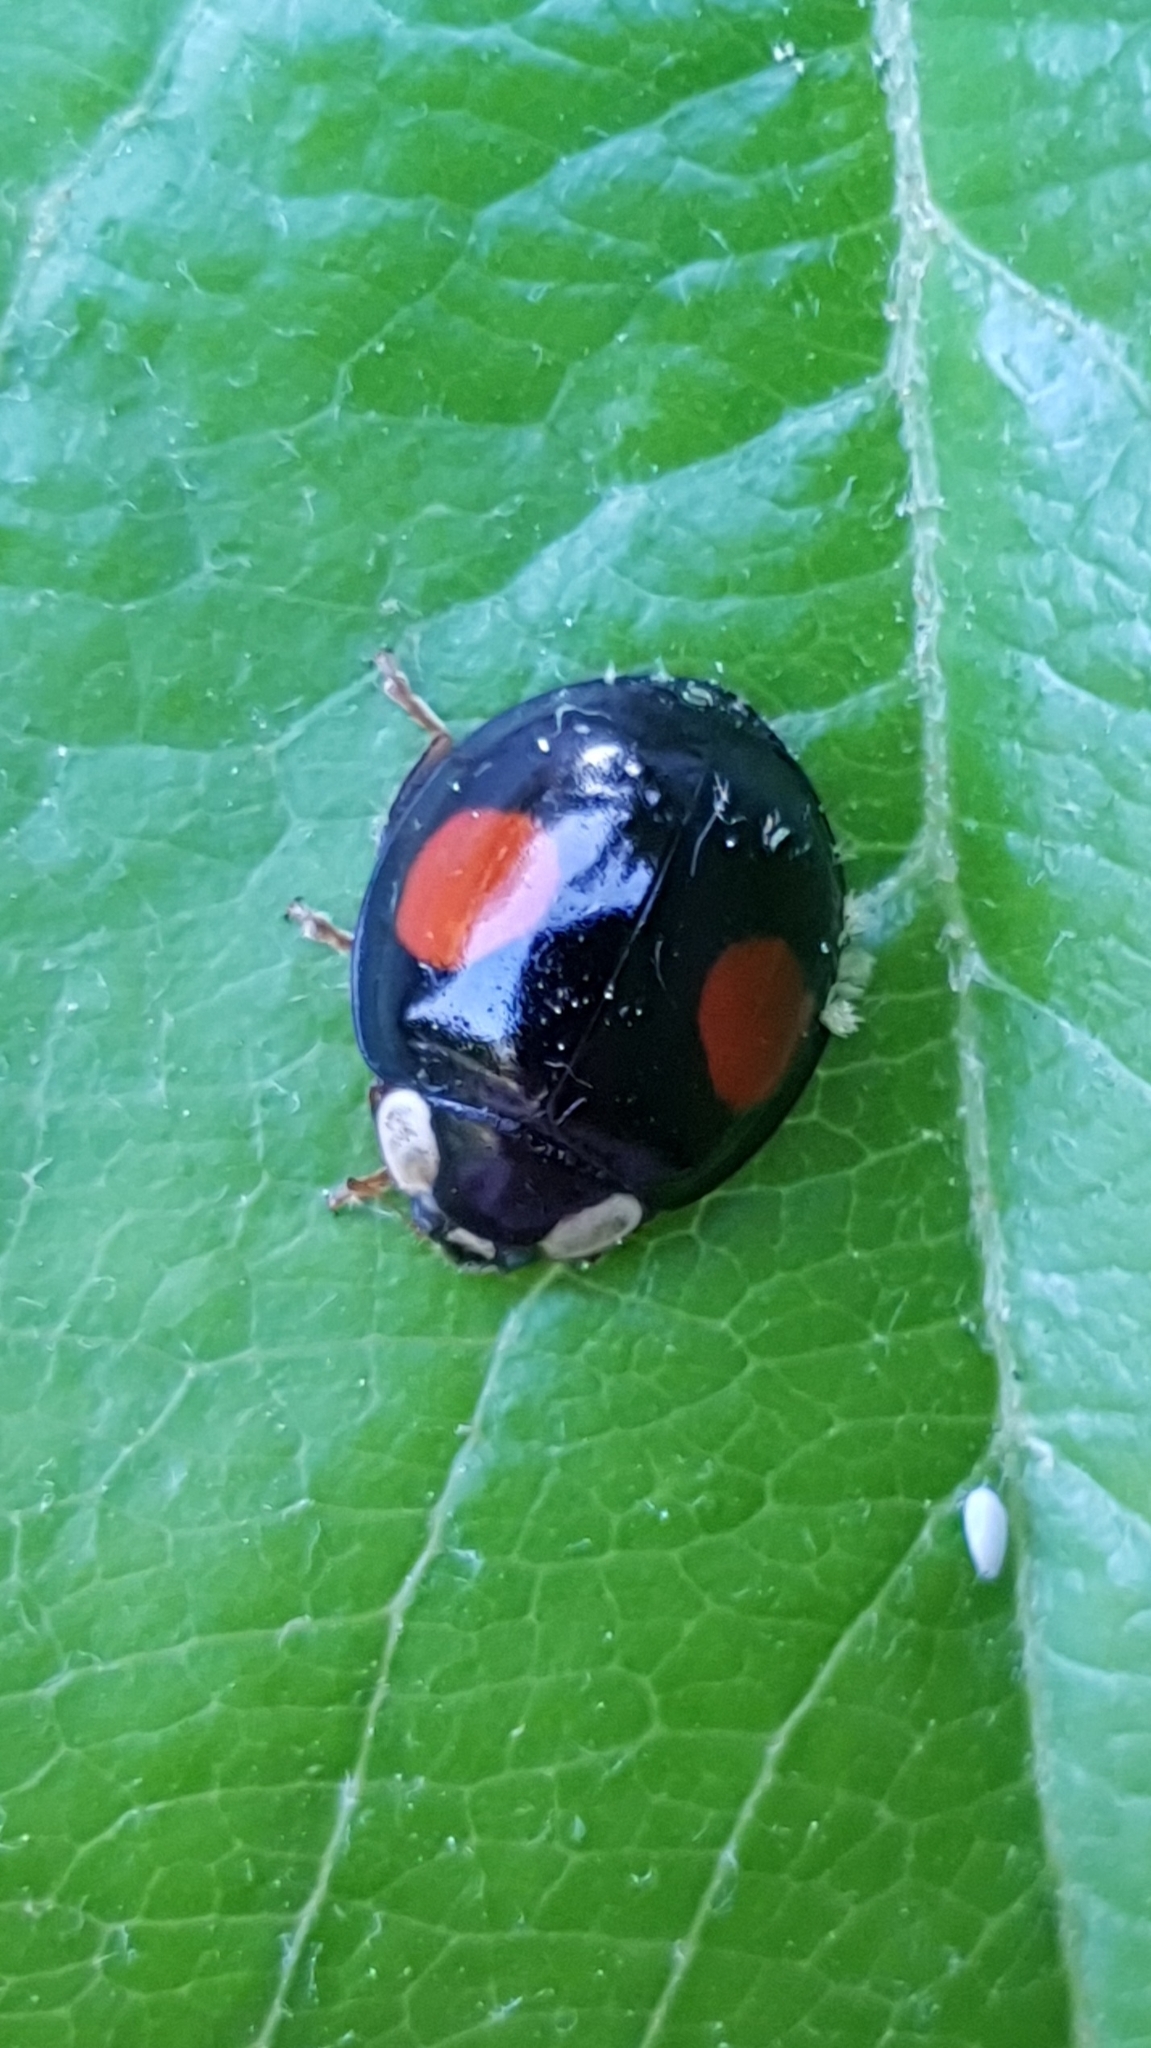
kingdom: Animalia
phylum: Arthropoda
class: Insecta
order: Coleoptera
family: Coccinellidae
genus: Harmonia
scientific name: Harmonia axyridis
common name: Harlequin ladybird
